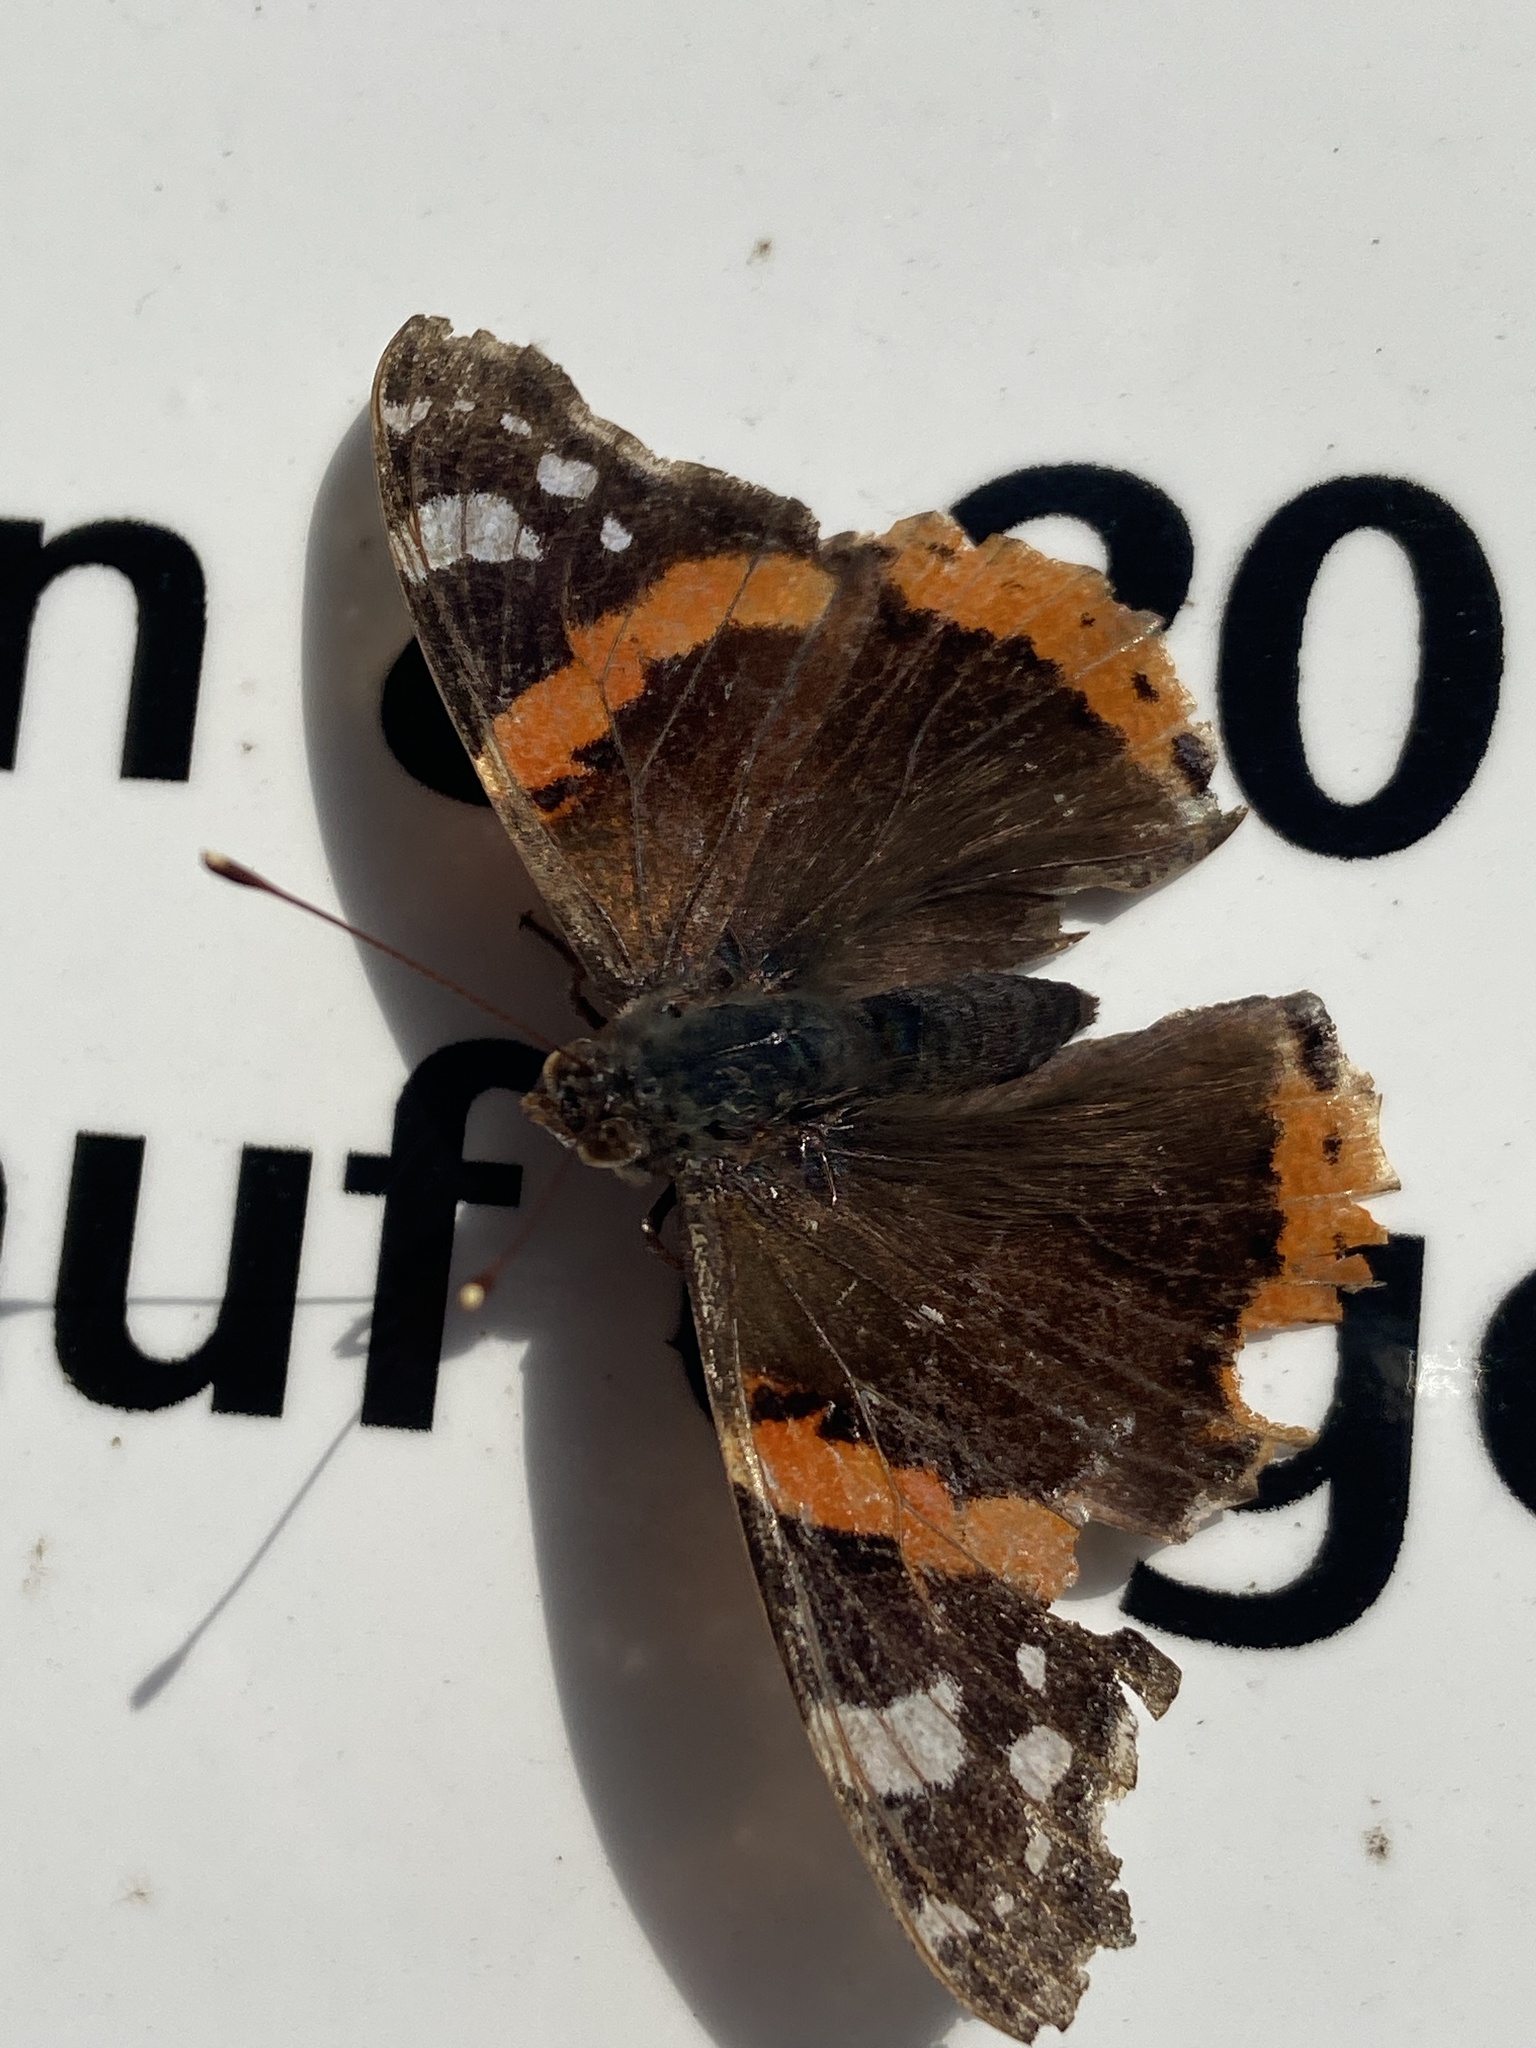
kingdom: Animalia
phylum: Arthropoda
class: Insecta
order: Lepidoptera
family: Nymphalidae
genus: Vanessa
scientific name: Vanessa atalanta
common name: Red admiral
